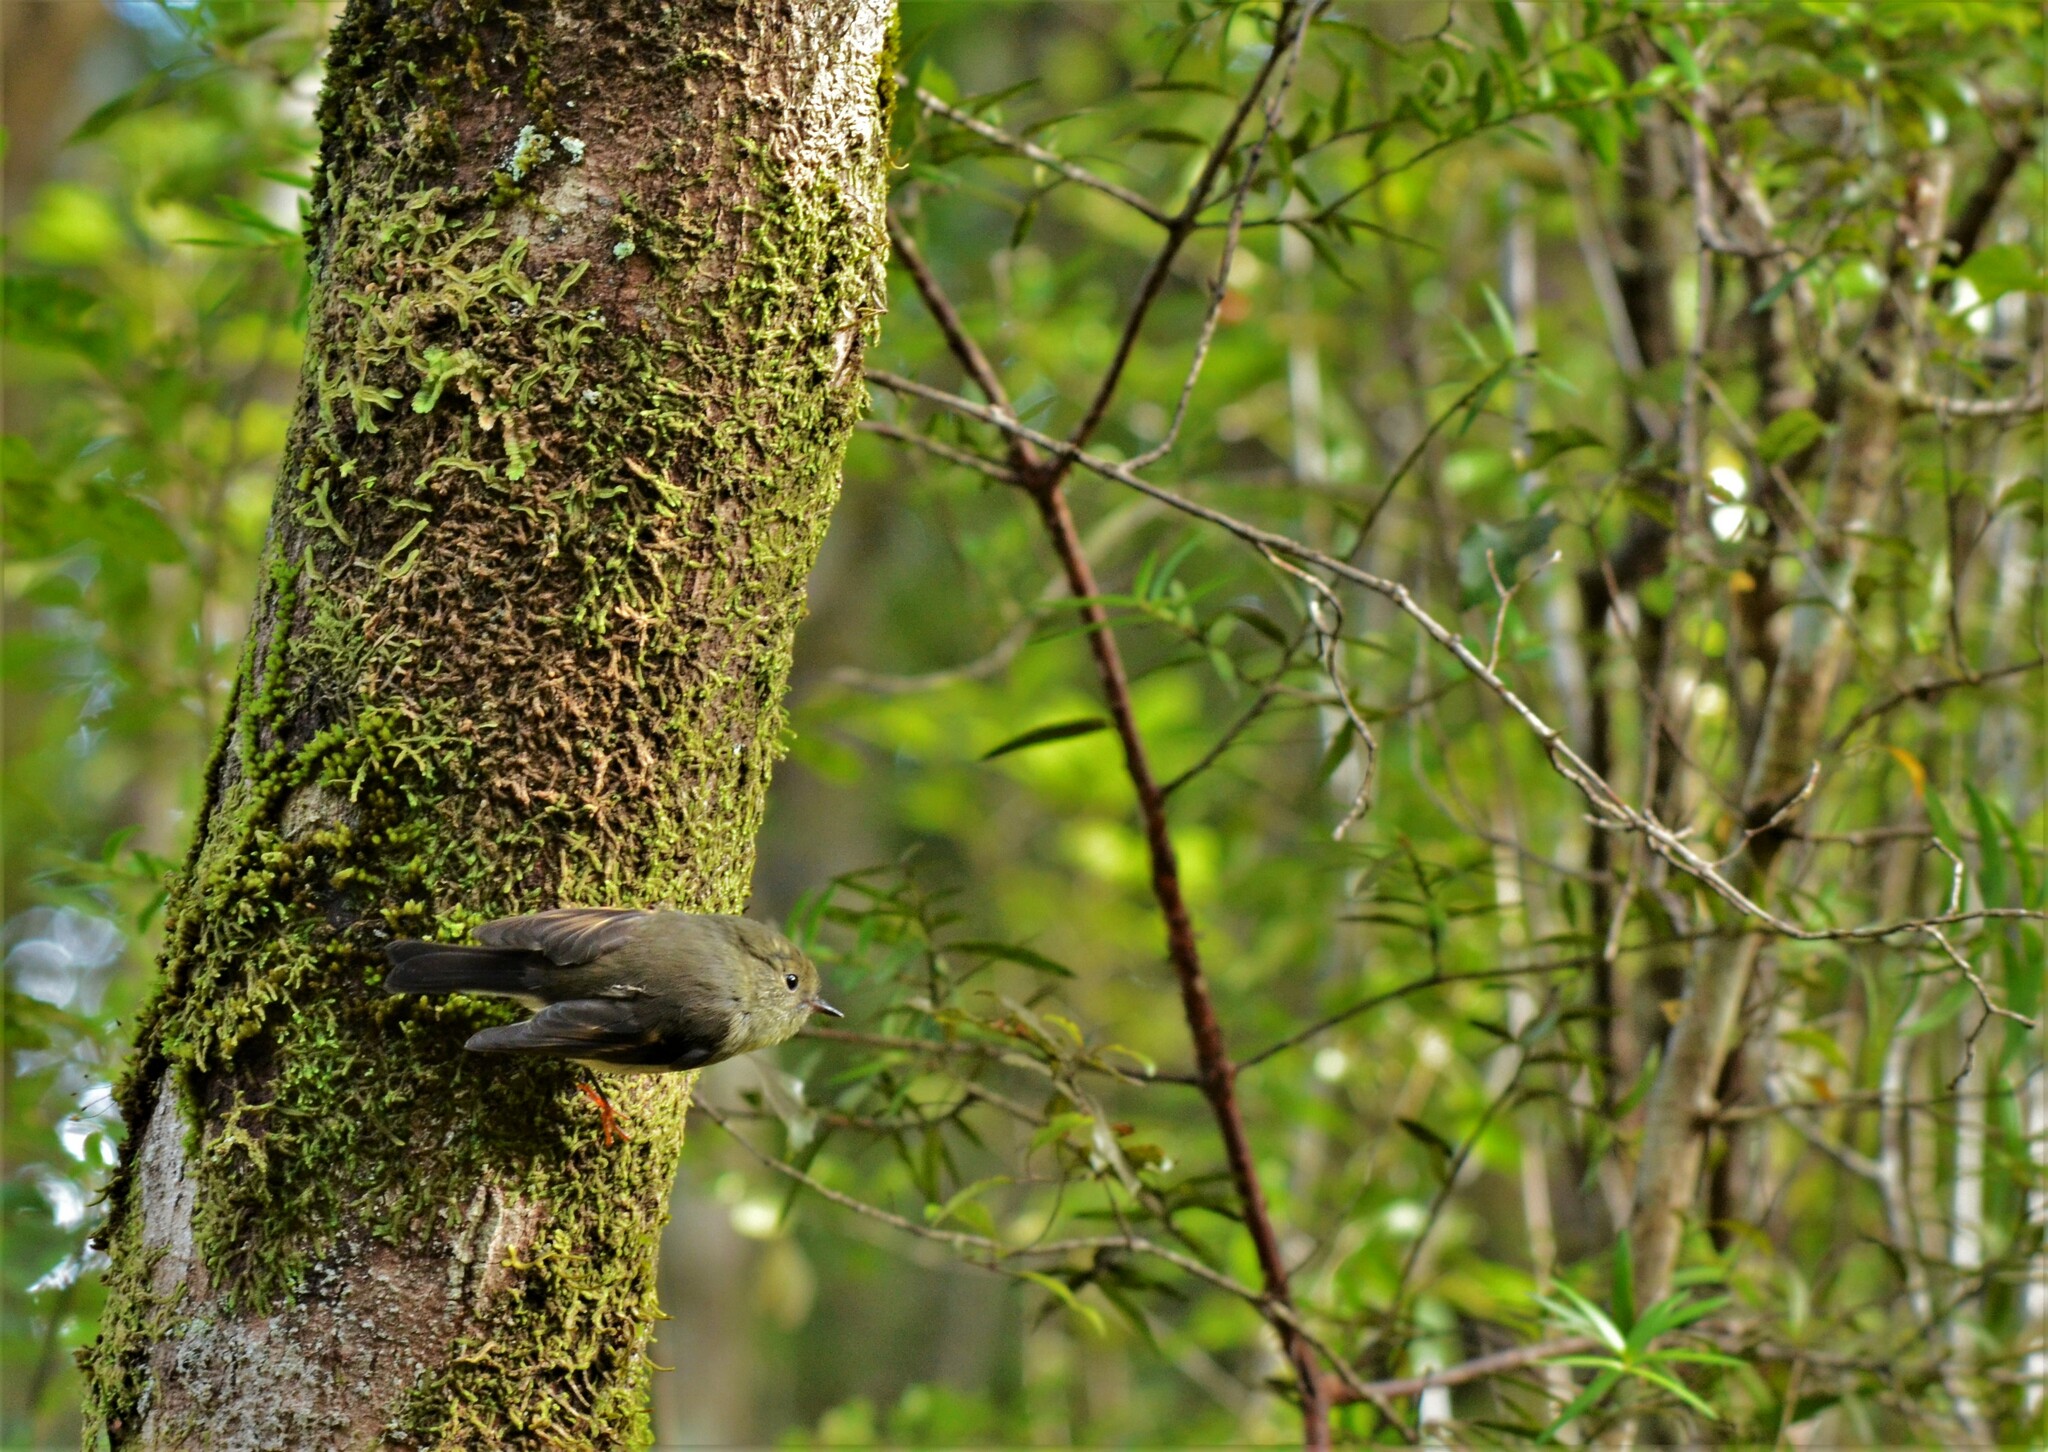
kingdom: Animalia
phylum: Chordata
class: Aves
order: Passeriformes
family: Petroicidae
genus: Petroica
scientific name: Petroica macrocephala
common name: Tomtit
